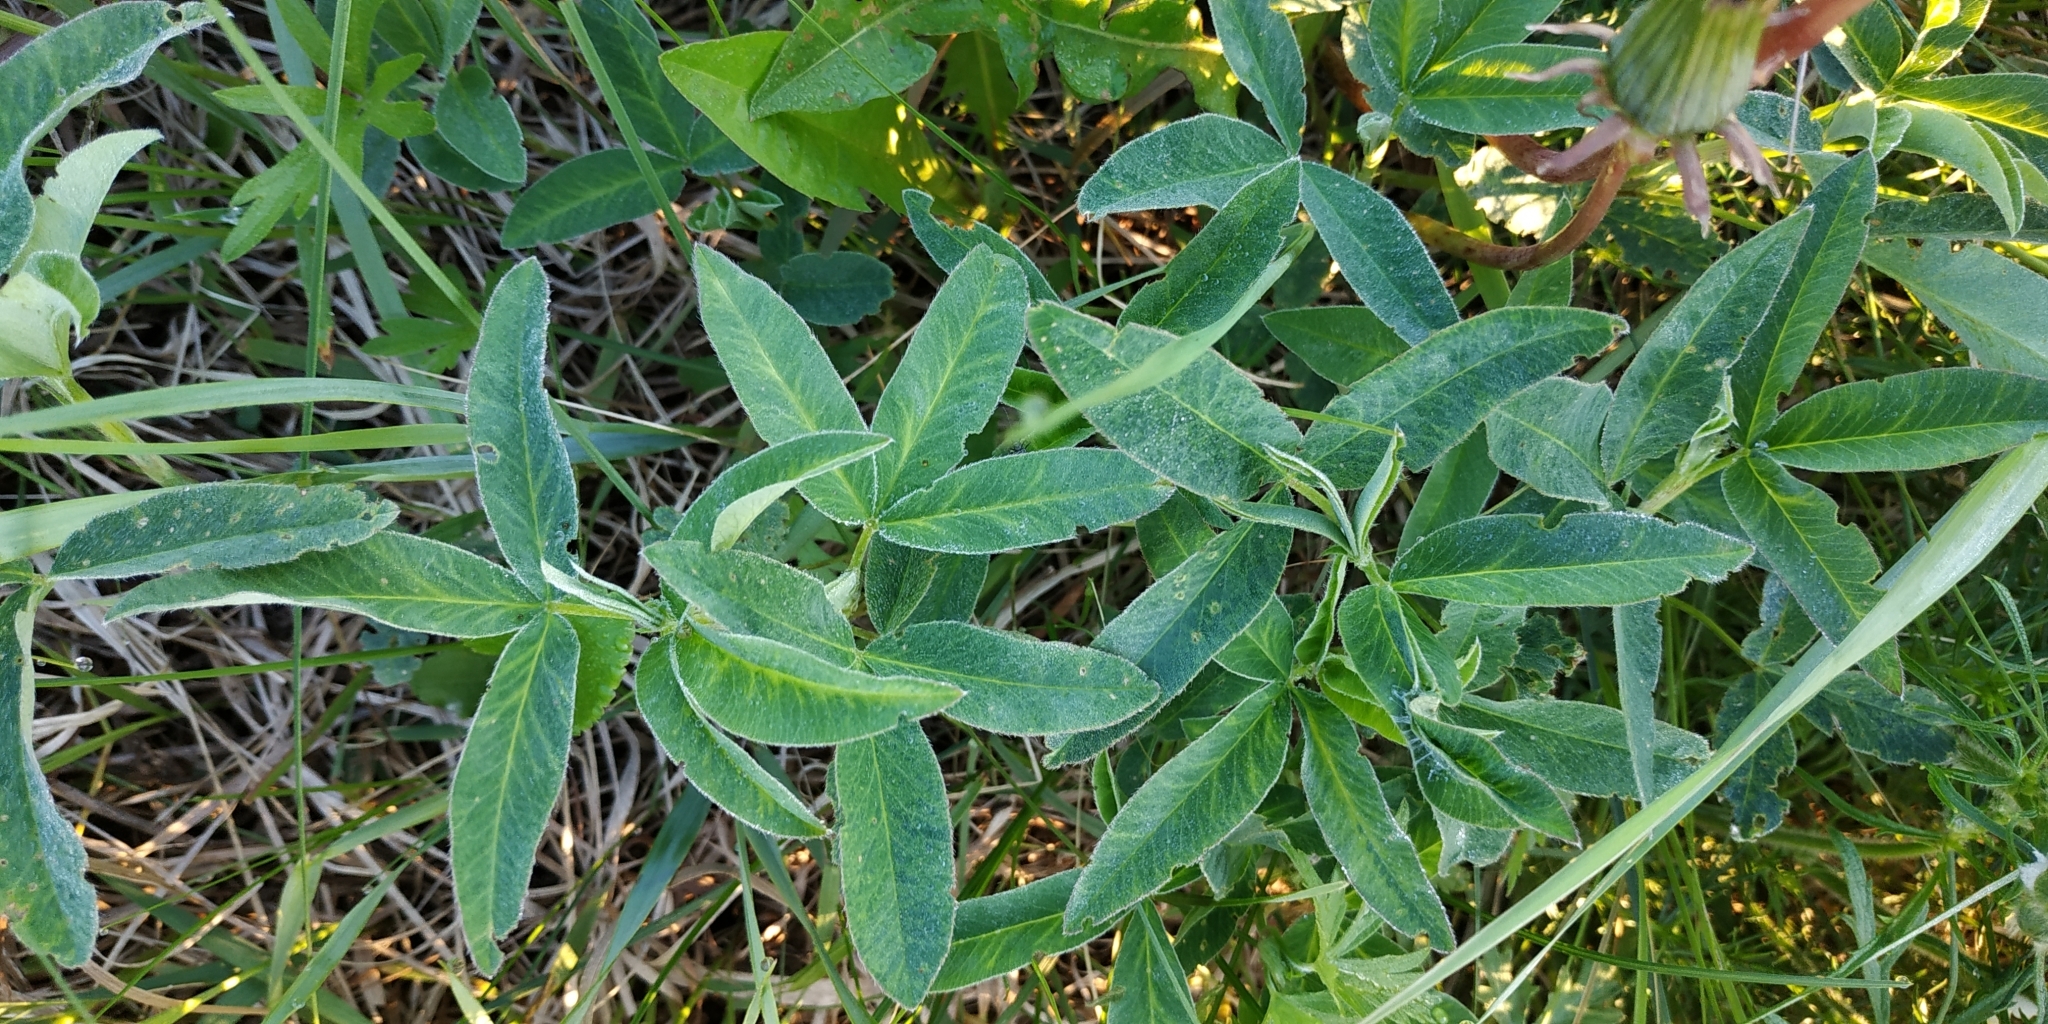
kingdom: Plantae
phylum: Tracheophyta
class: Magnoliopsida
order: Fabales
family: Fabaceae
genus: Trifolium
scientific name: Trifolium medium
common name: Zigzag clover
